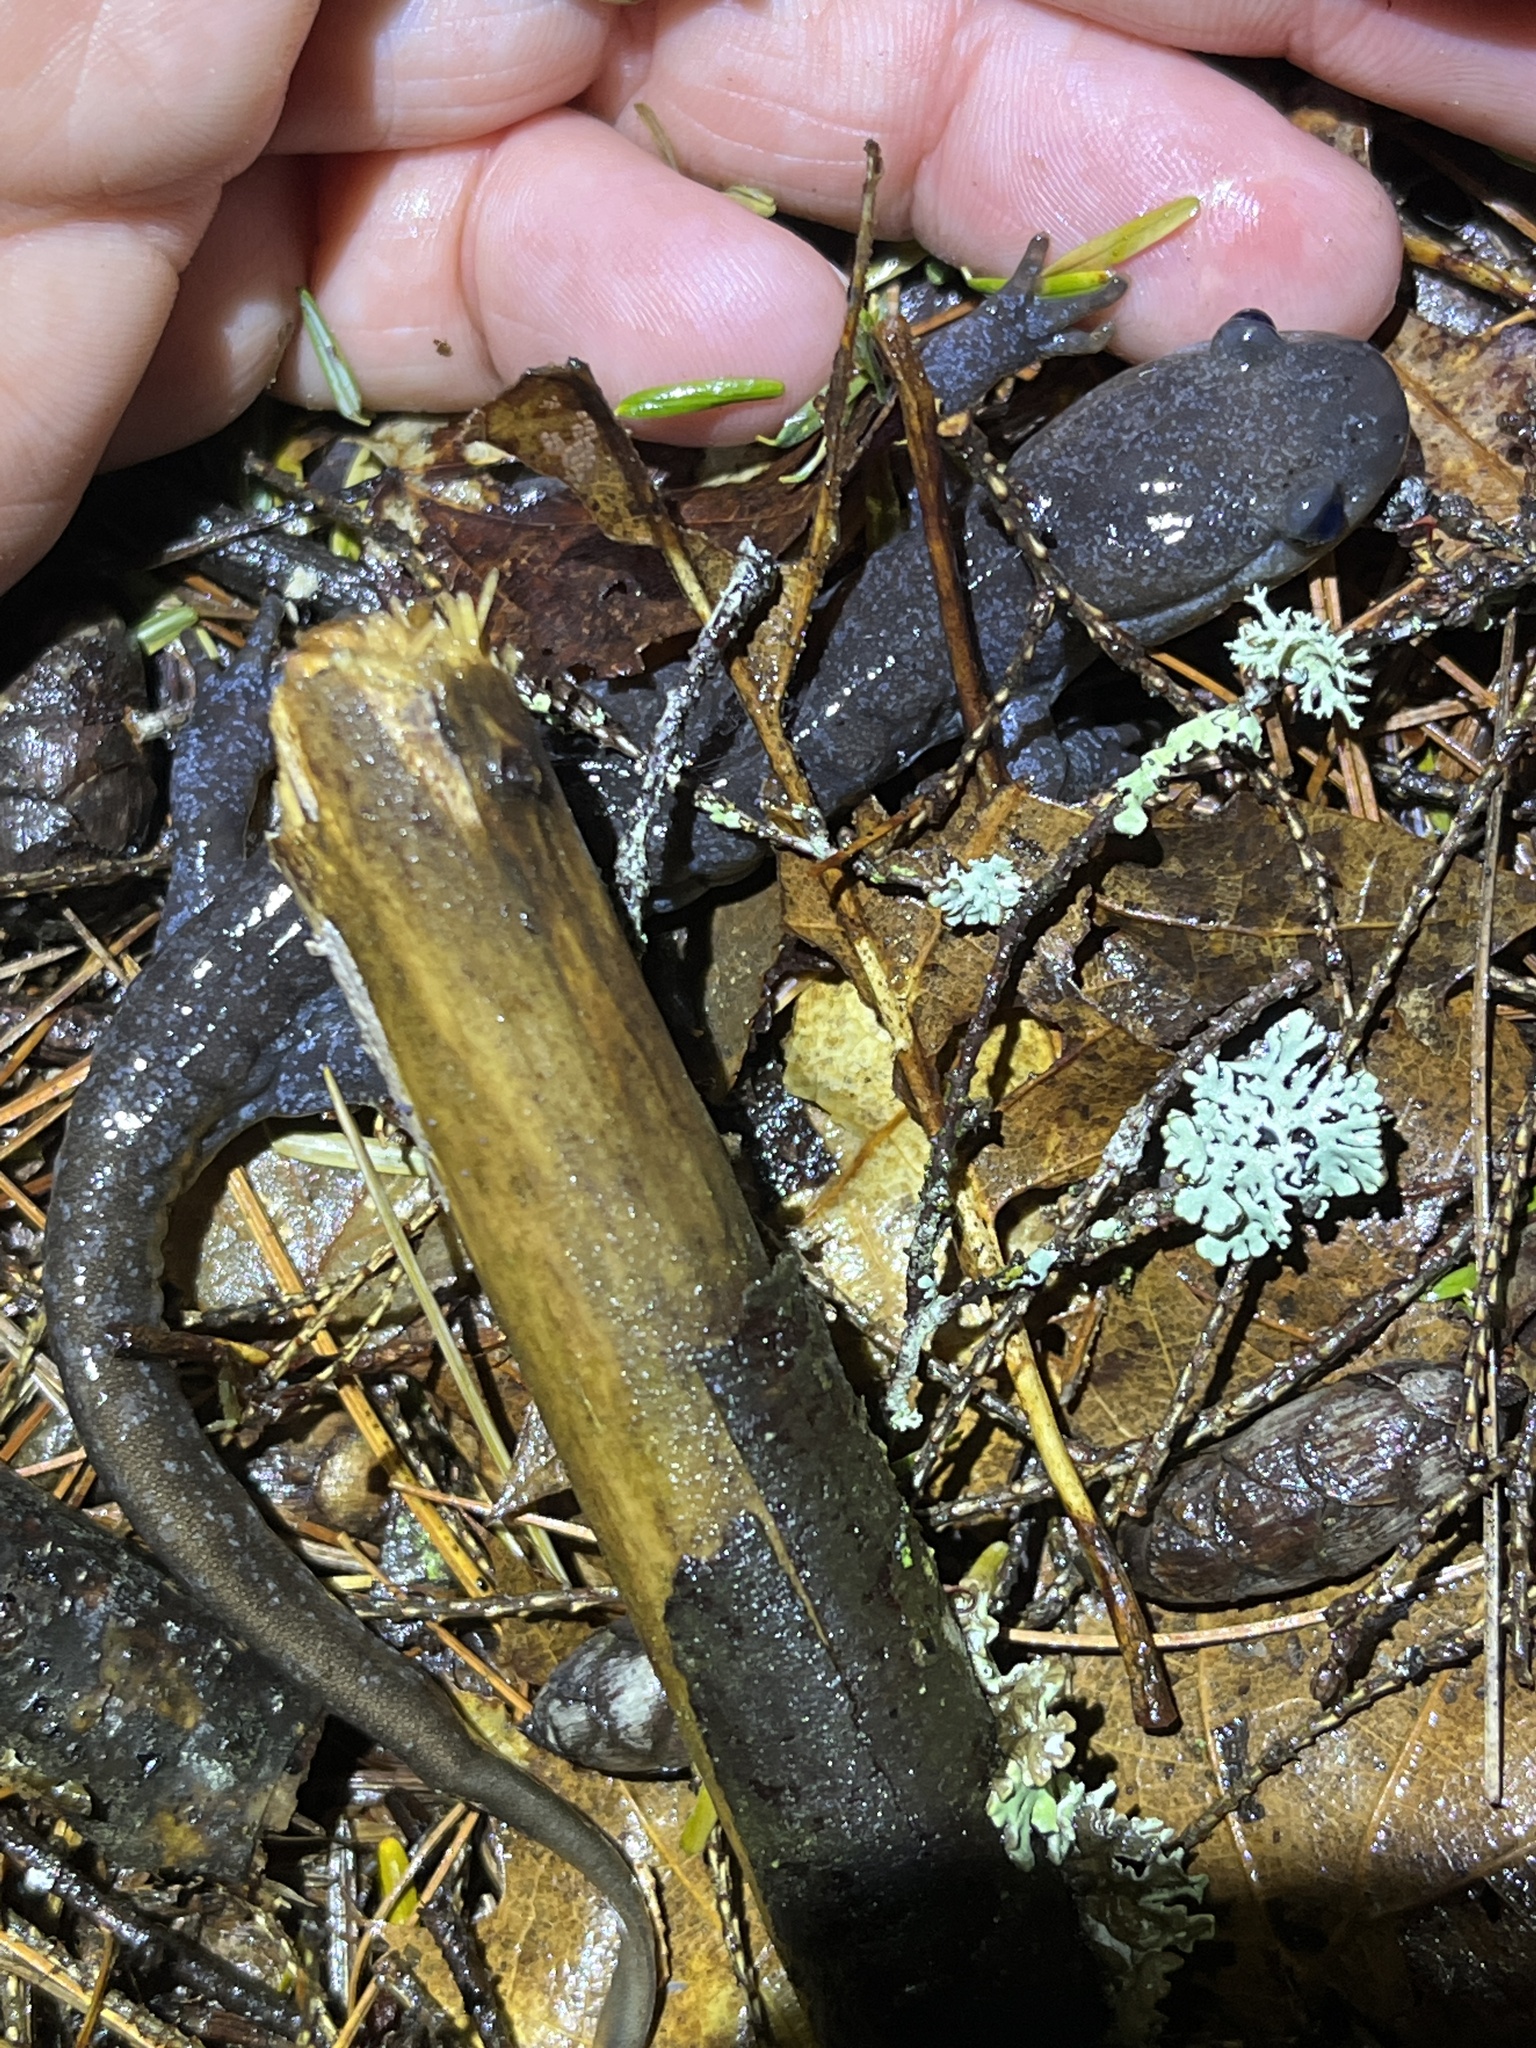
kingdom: Animalia
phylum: Chordata
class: Amphibia
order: Caudata
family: Ambystomatidae
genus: Ambystoma
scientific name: Ambystoma jeffersonianum
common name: Jefferson salamander
